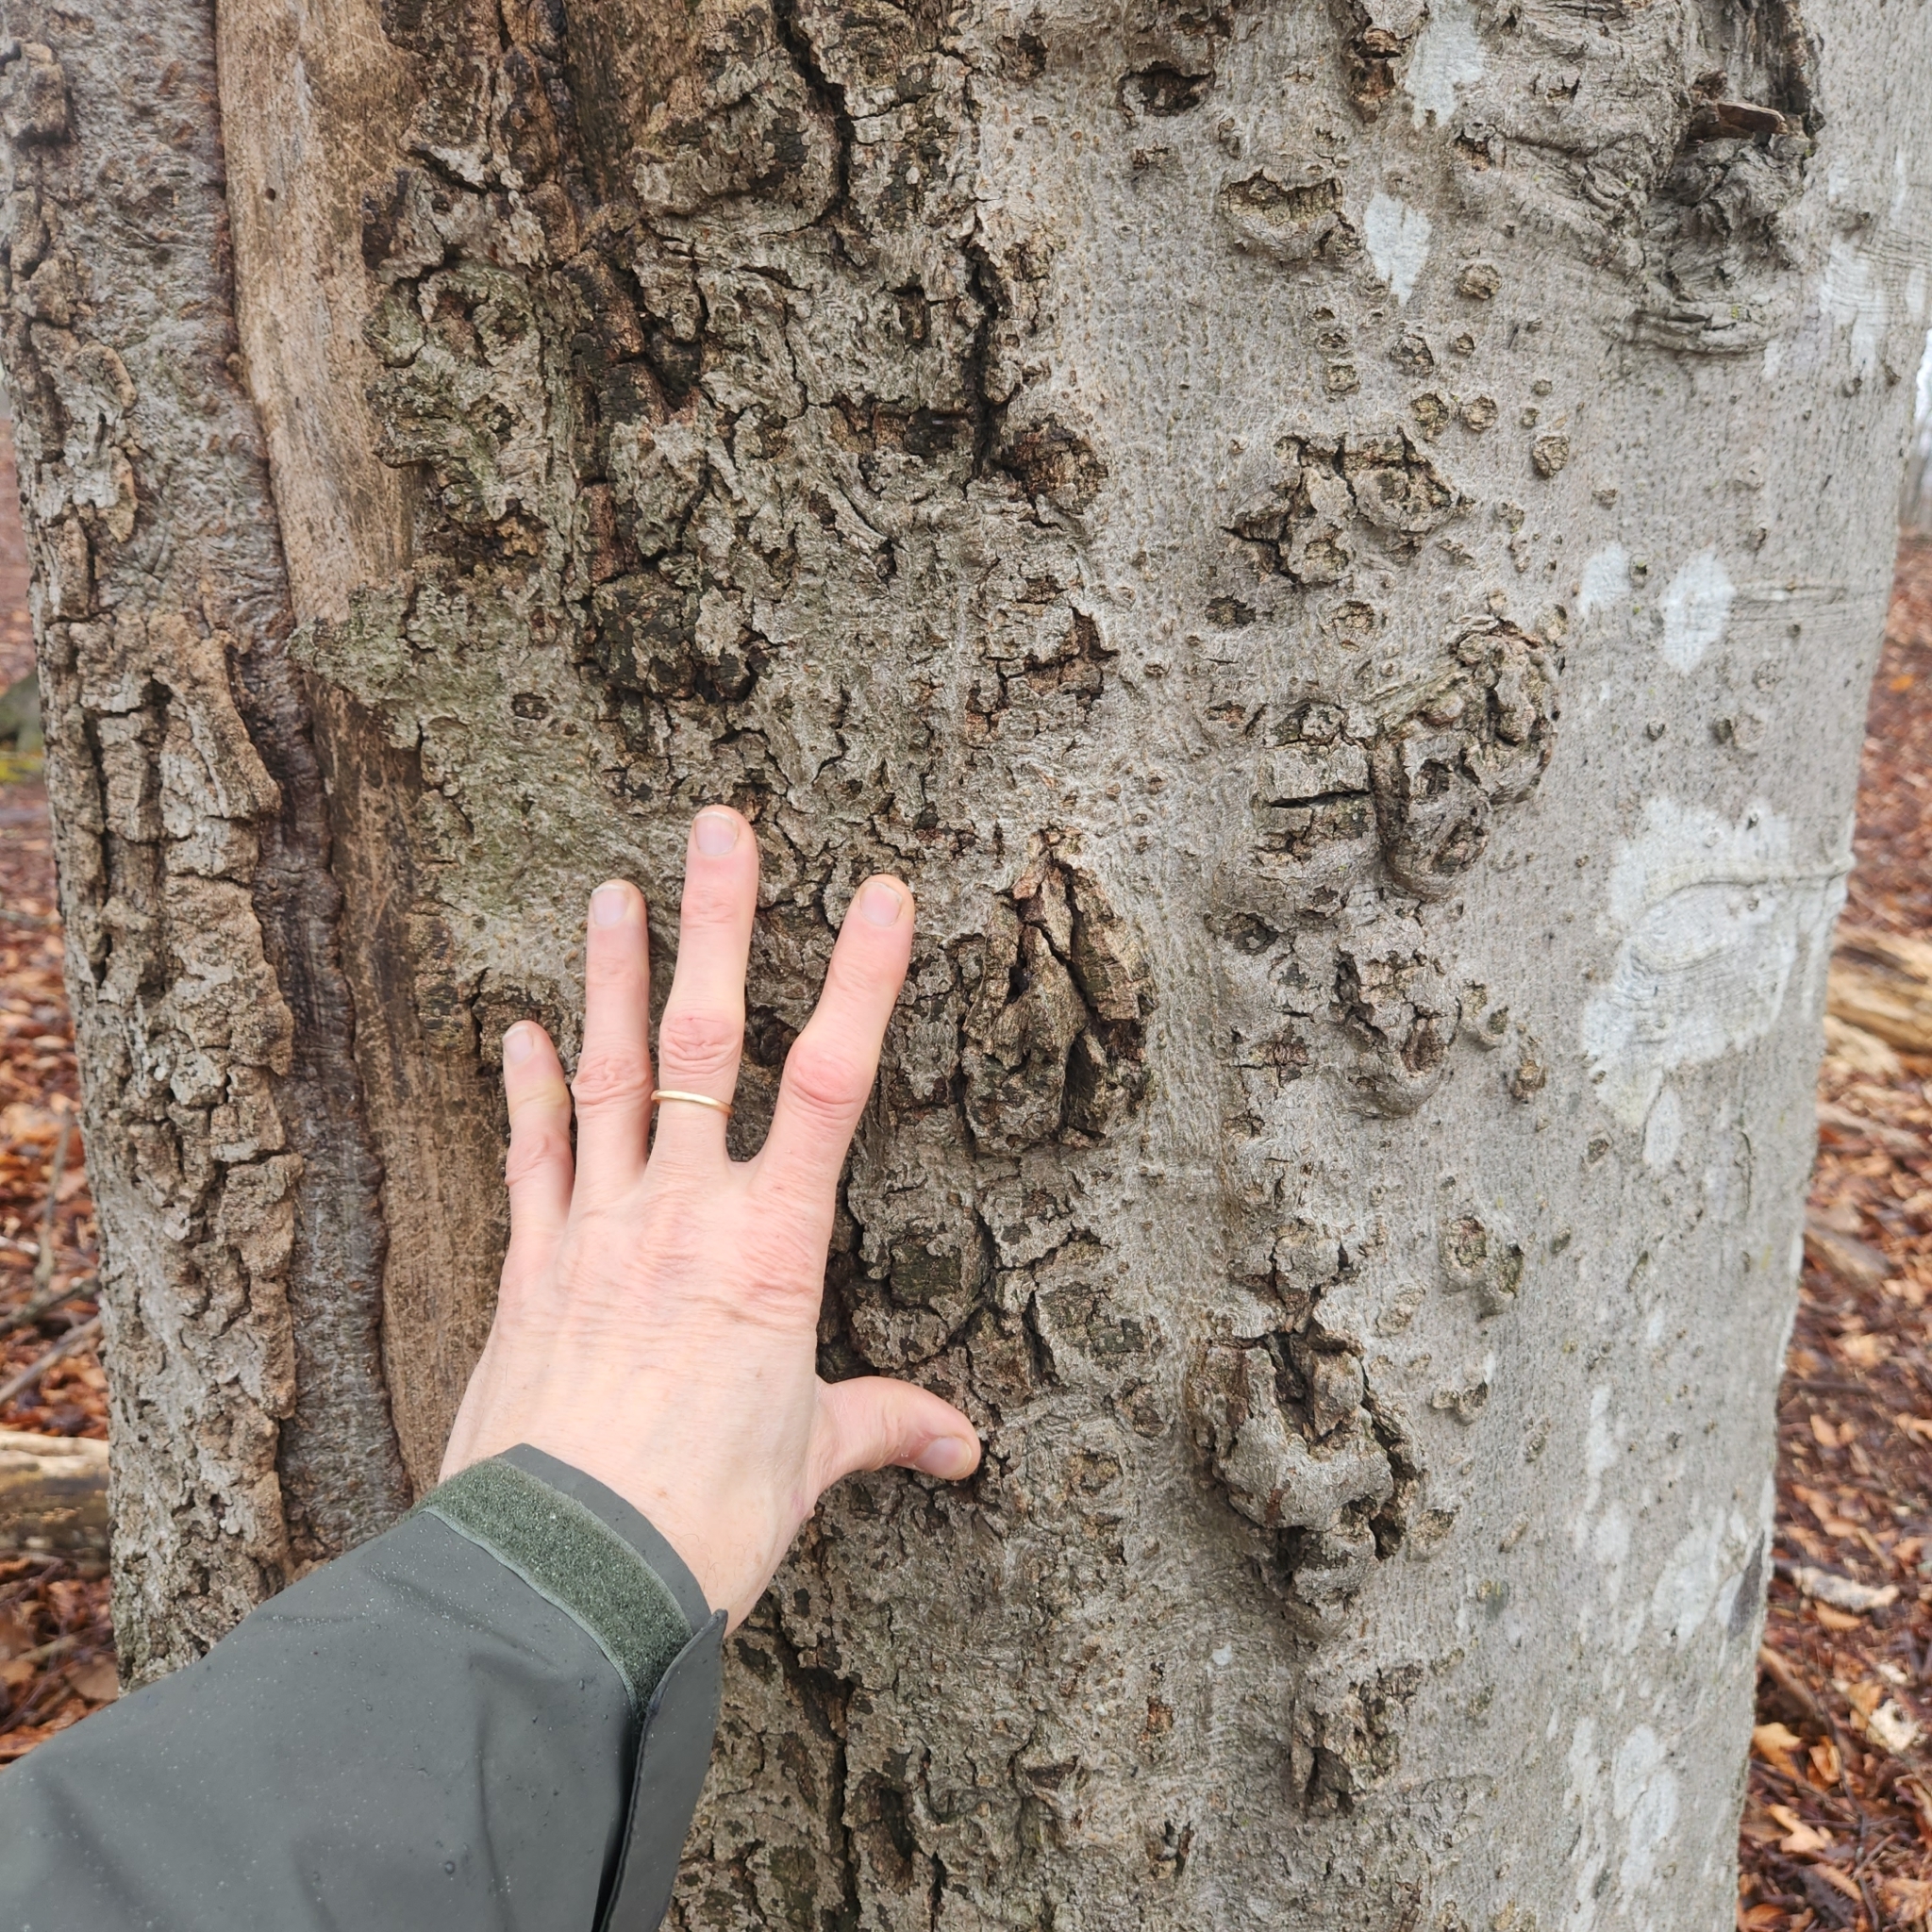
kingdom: Plantae
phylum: Tracheophyta
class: Magnoliopsida
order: Fagales
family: Fagaceae
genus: Fagus
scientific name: Fagus grandifolia
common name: American beech
